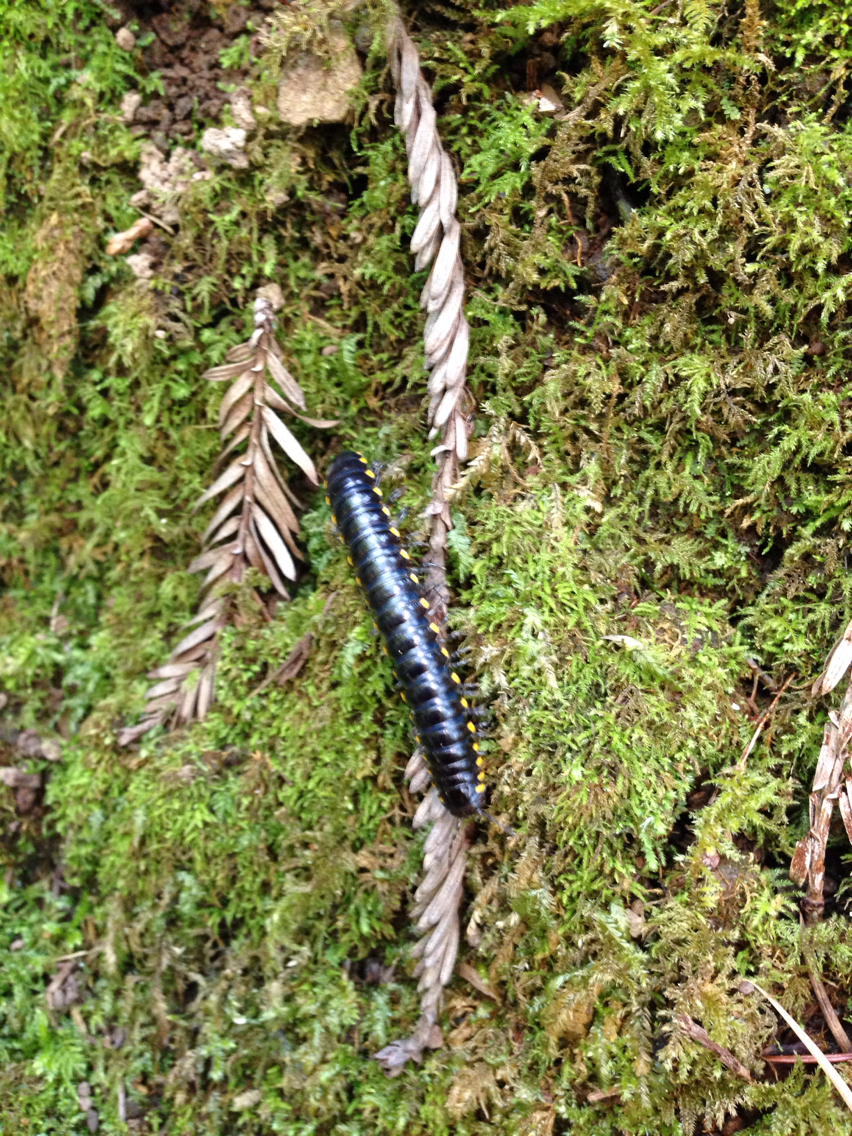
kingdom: Animalia
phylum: Arthropoda
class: Diplopoda
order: Polydesmida
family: Xystodesmidae
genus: Harpaphe
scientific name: Harpaphe haydeniana
